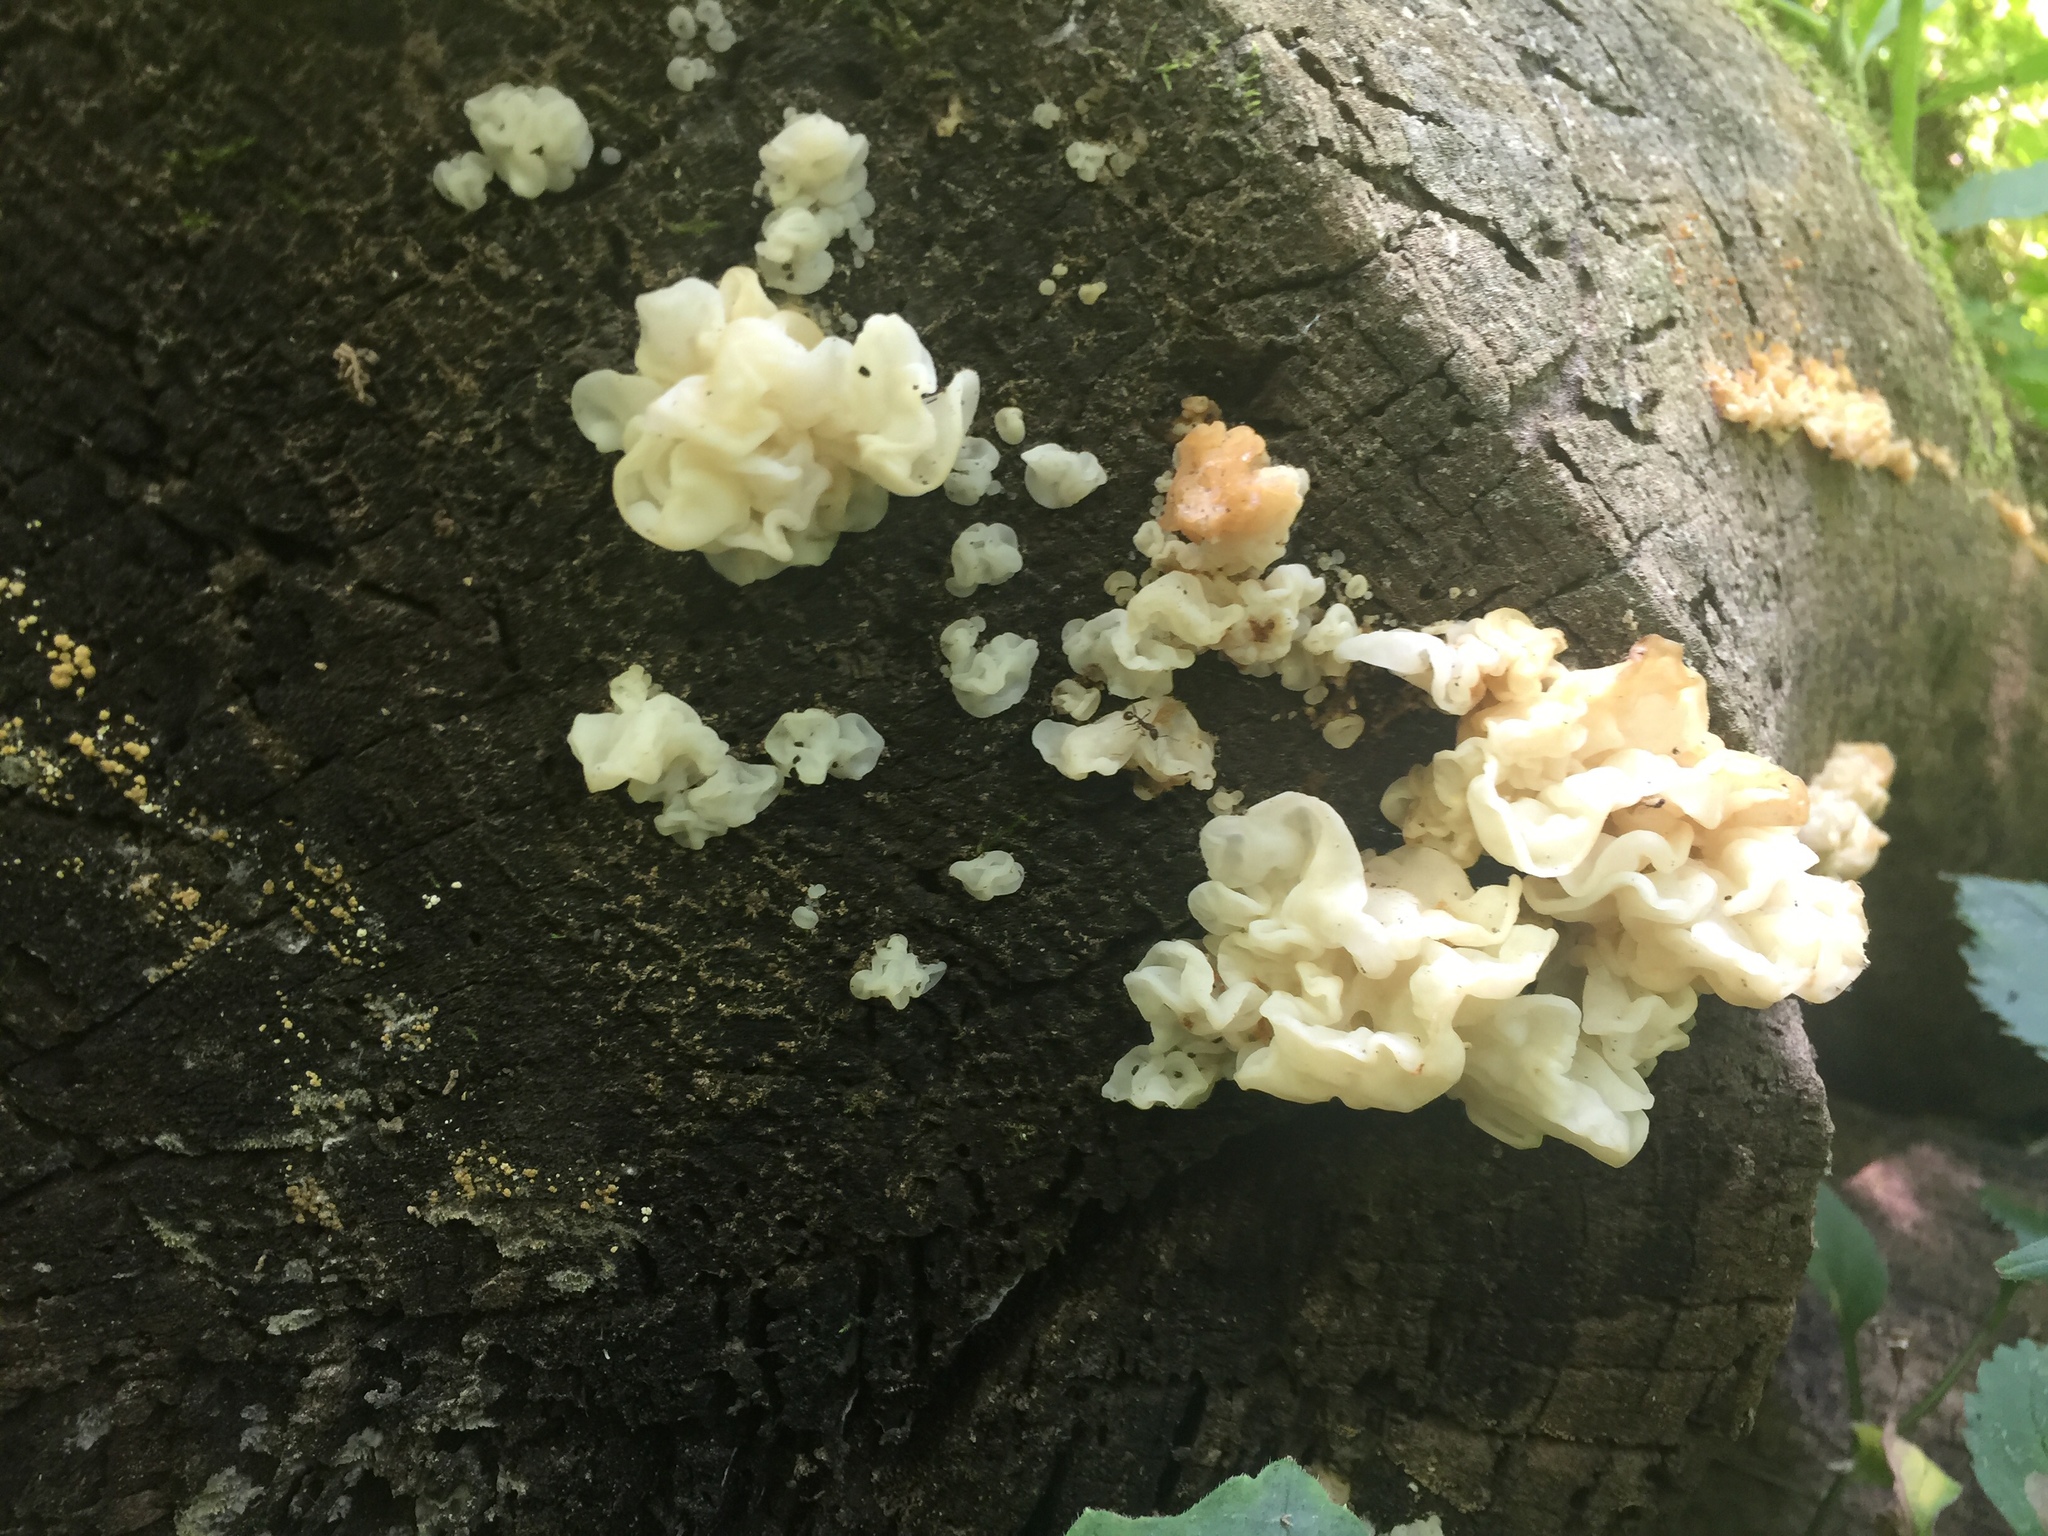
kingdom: Fungi
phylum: Basidiomycota
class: Agaricomycetes
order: Auriculariales
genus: Ductifera
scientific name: Ductifera pululahuana
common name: White jelly fungus
